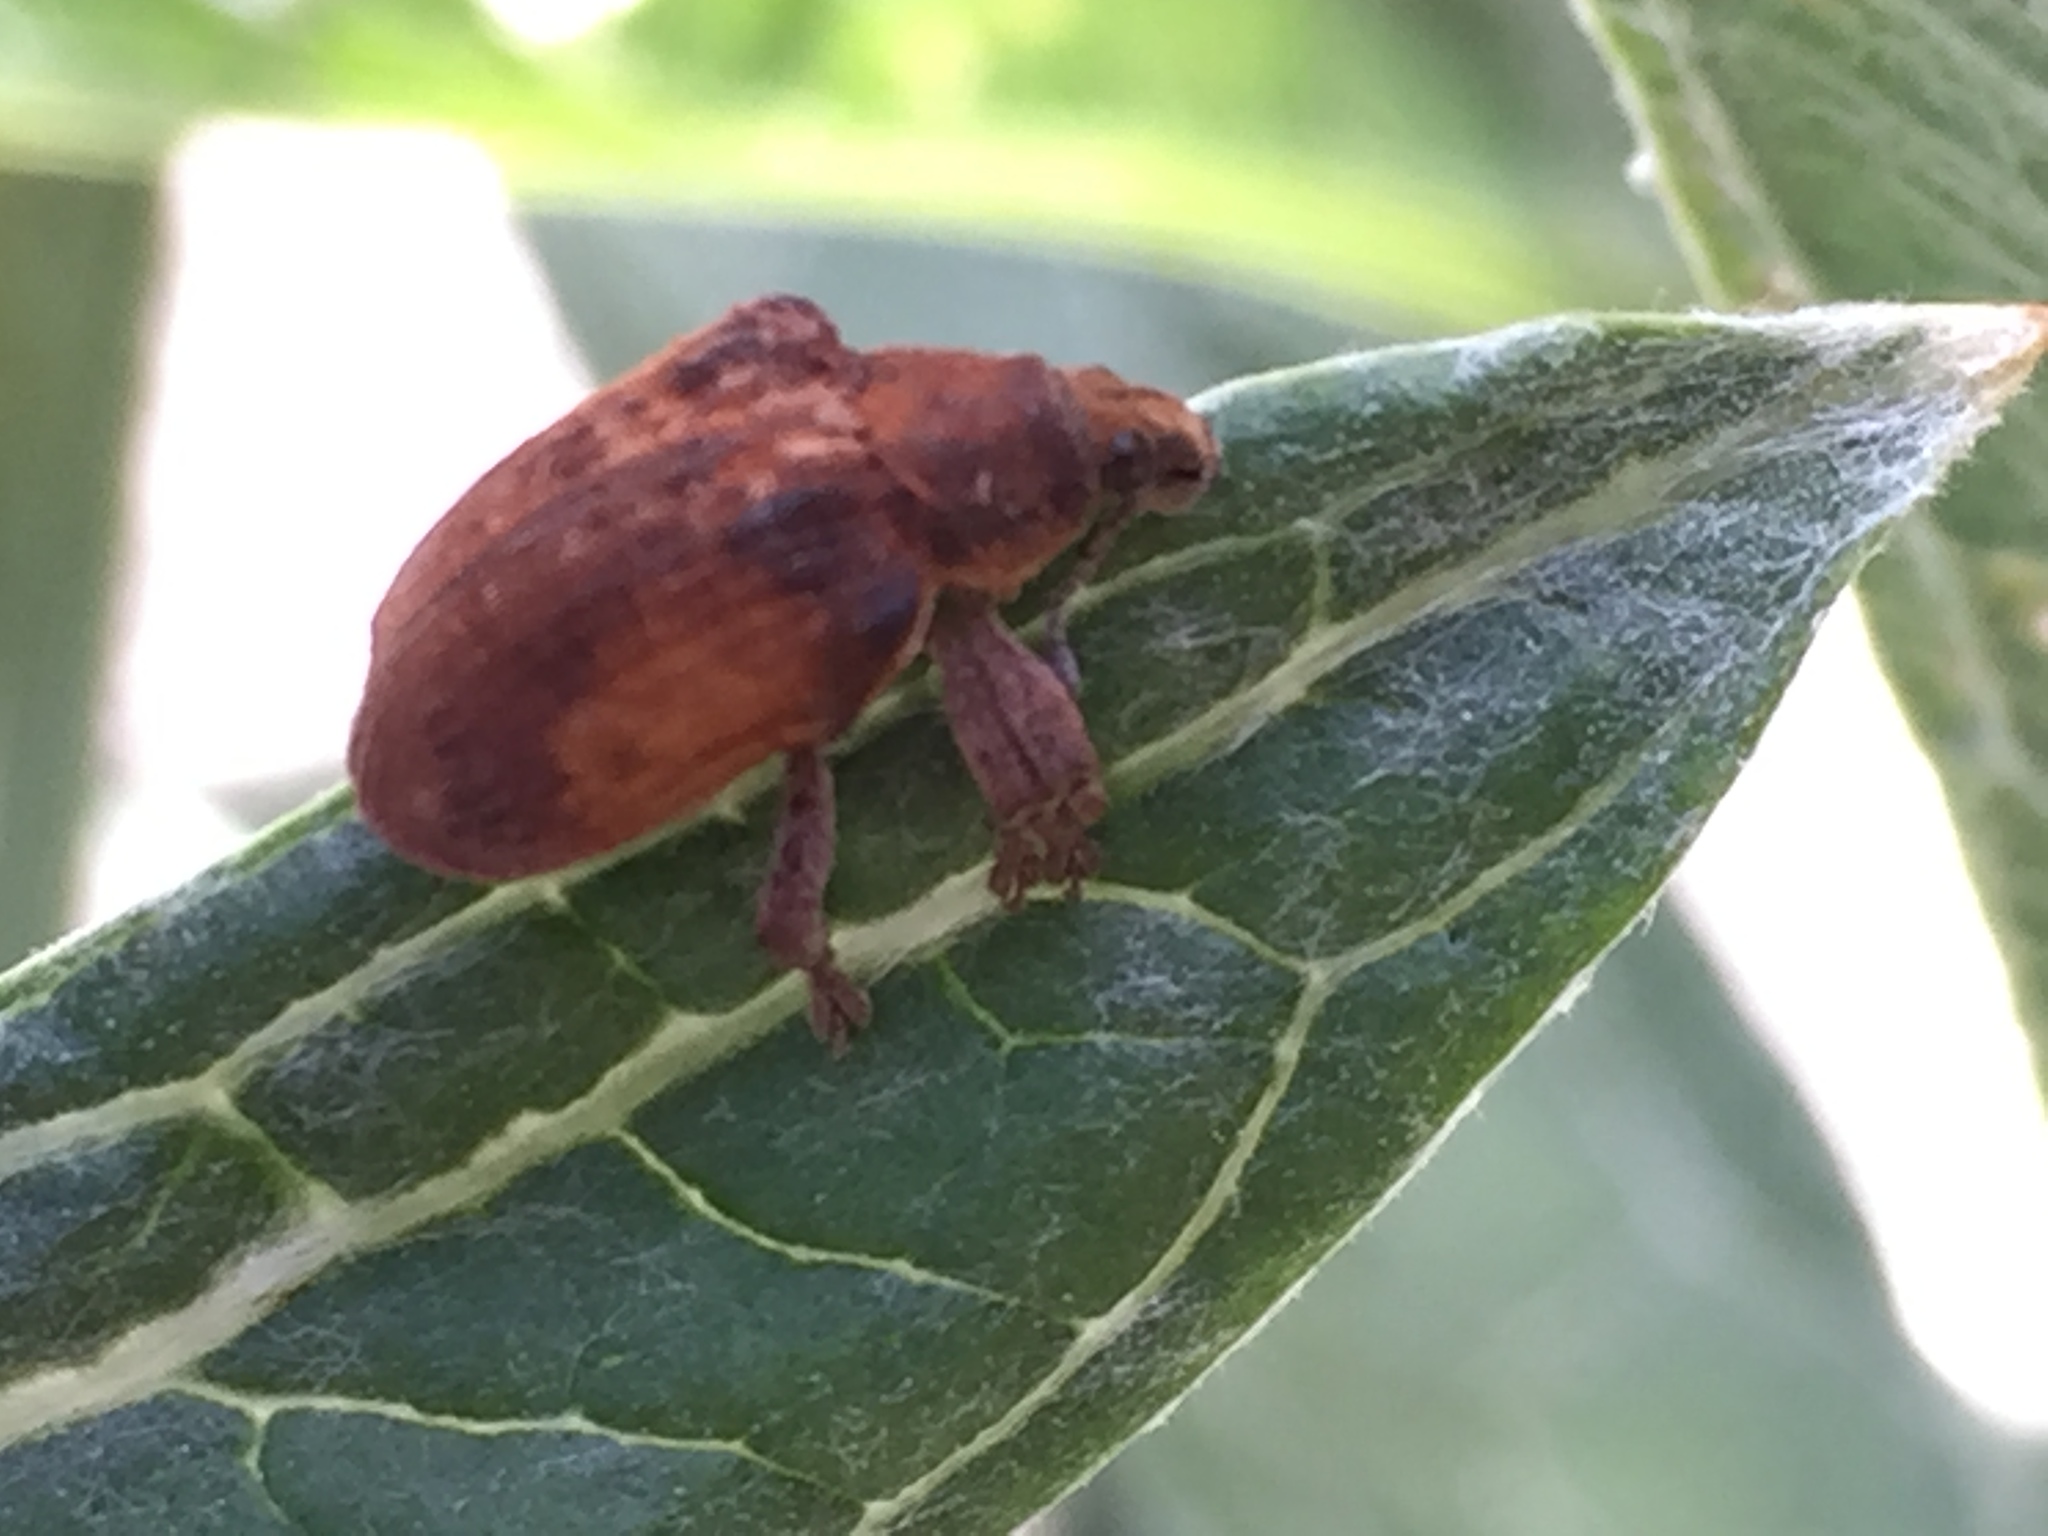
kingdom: Animalia
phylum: Arthropoda
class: Insecta
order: Coleoptera
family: Curculionidae
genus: Gonipterus
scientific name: Gonipterus platensis
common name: Eucalyptus snout beetle
